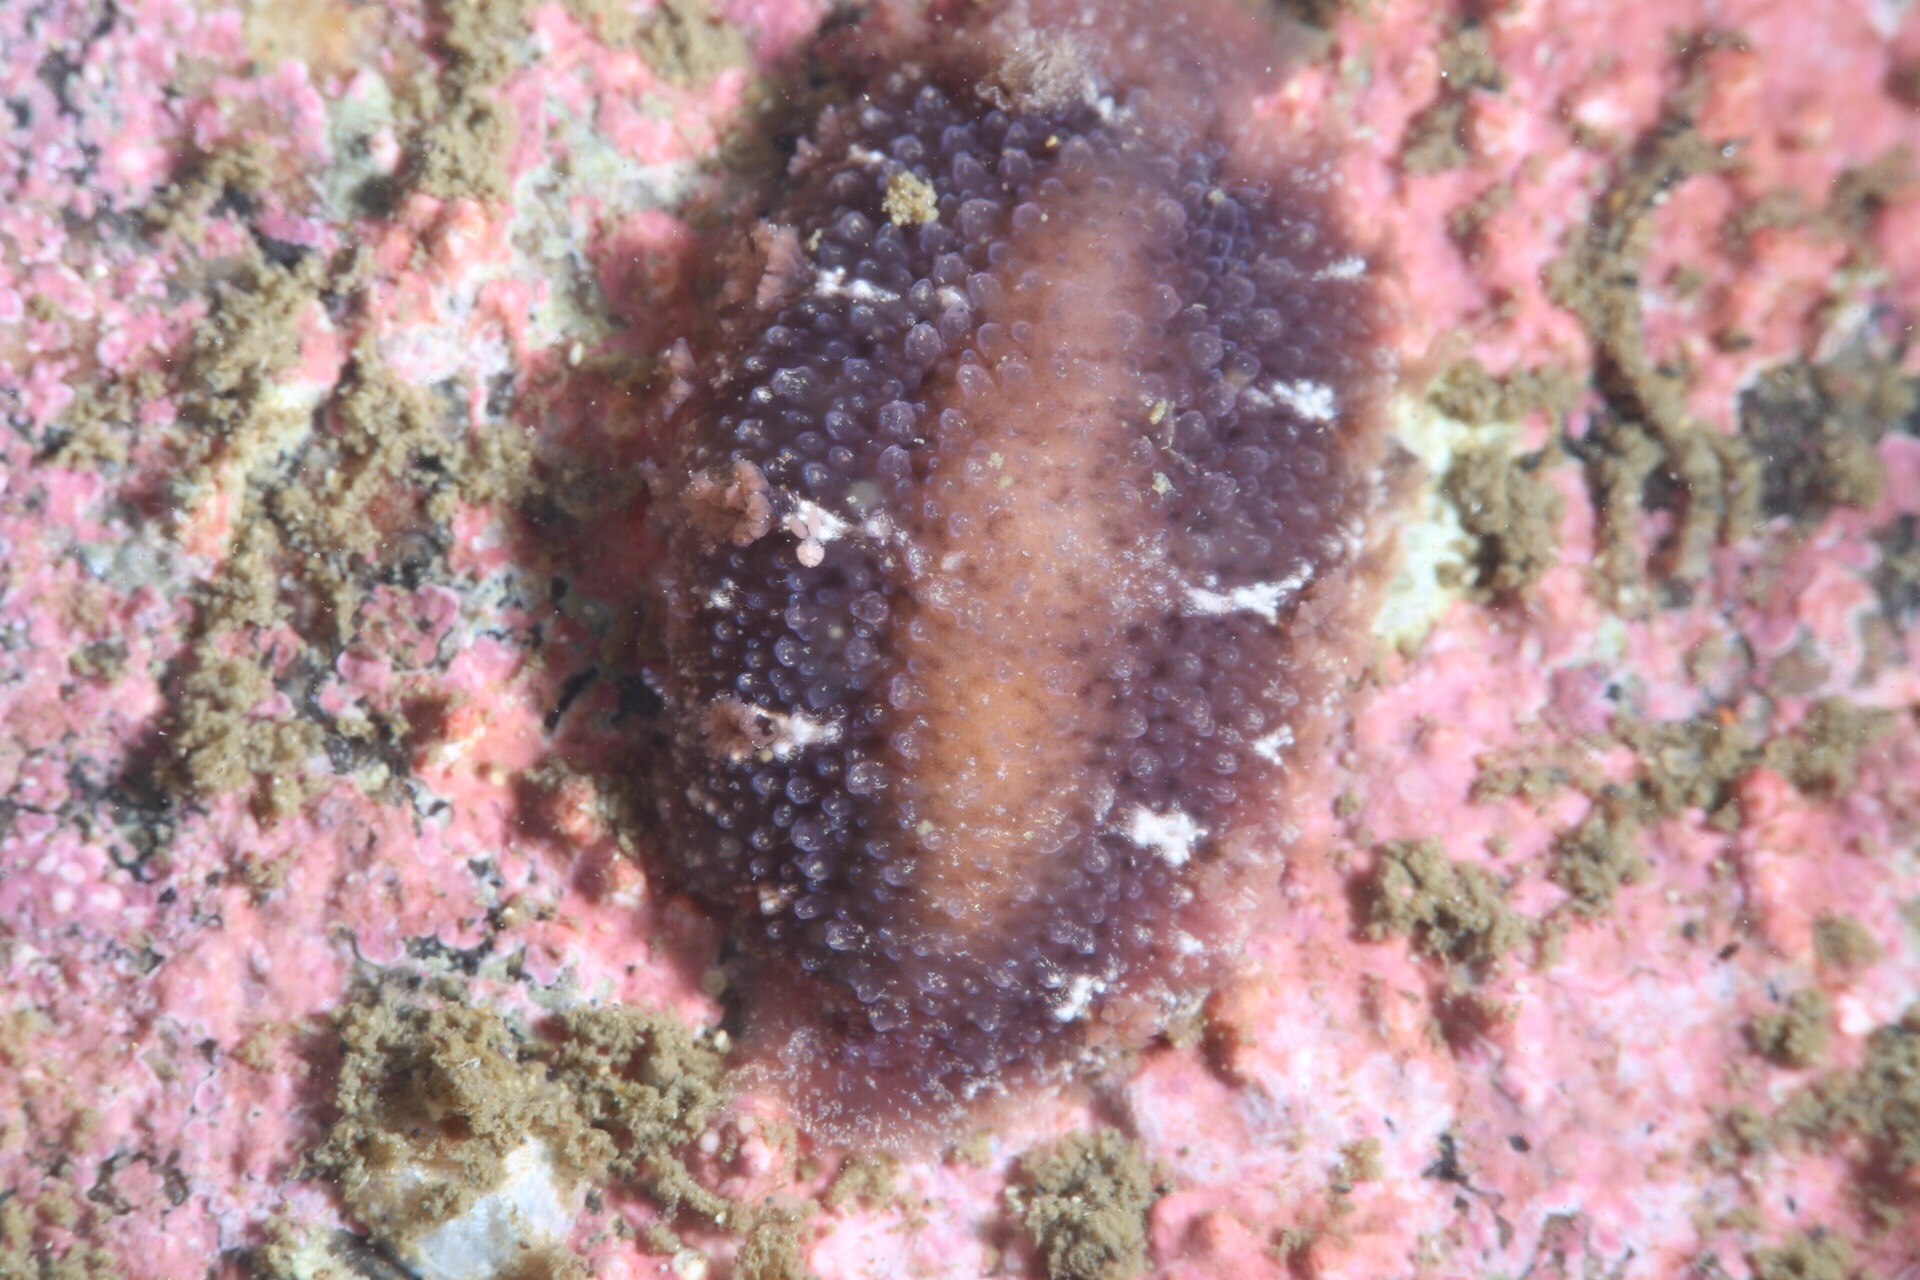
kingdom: Animalia
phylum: Mollusca
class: Gastropoda
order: Nudibranchia
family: Tritoniidae
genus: Tritonia
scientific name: Tritonia hombergii
